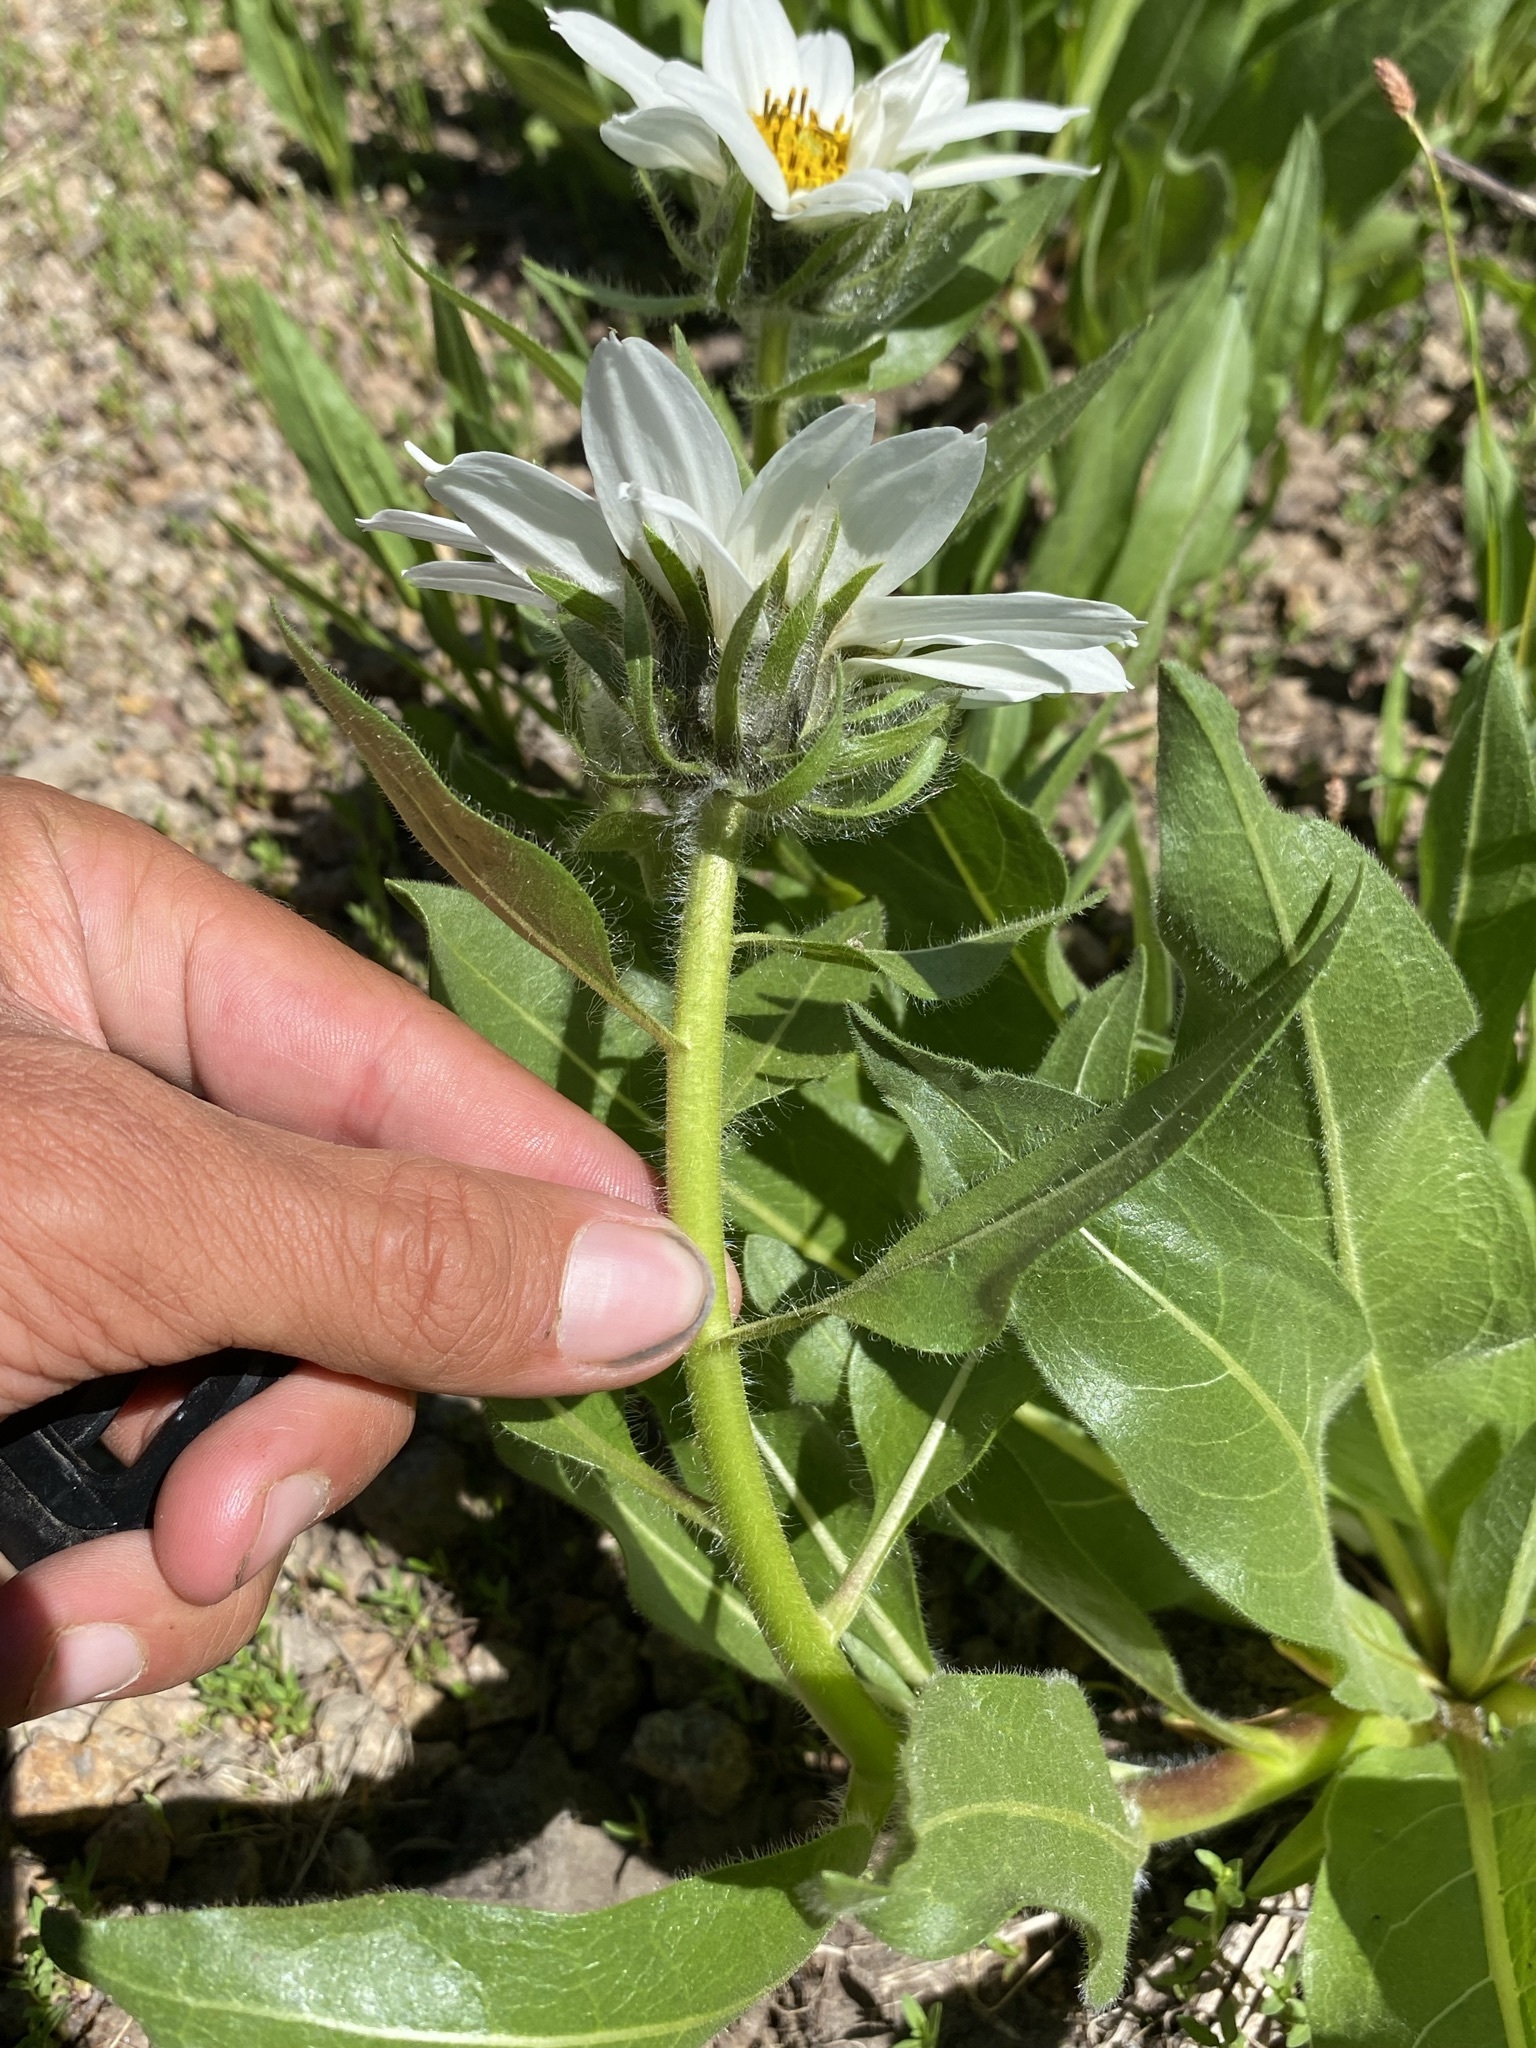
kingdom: Plantae
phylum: Tracheophyta
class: Magnoliopsida
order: Asterales
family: Asteraceae
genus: Wyethia
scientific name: Wyethia helianthoides
